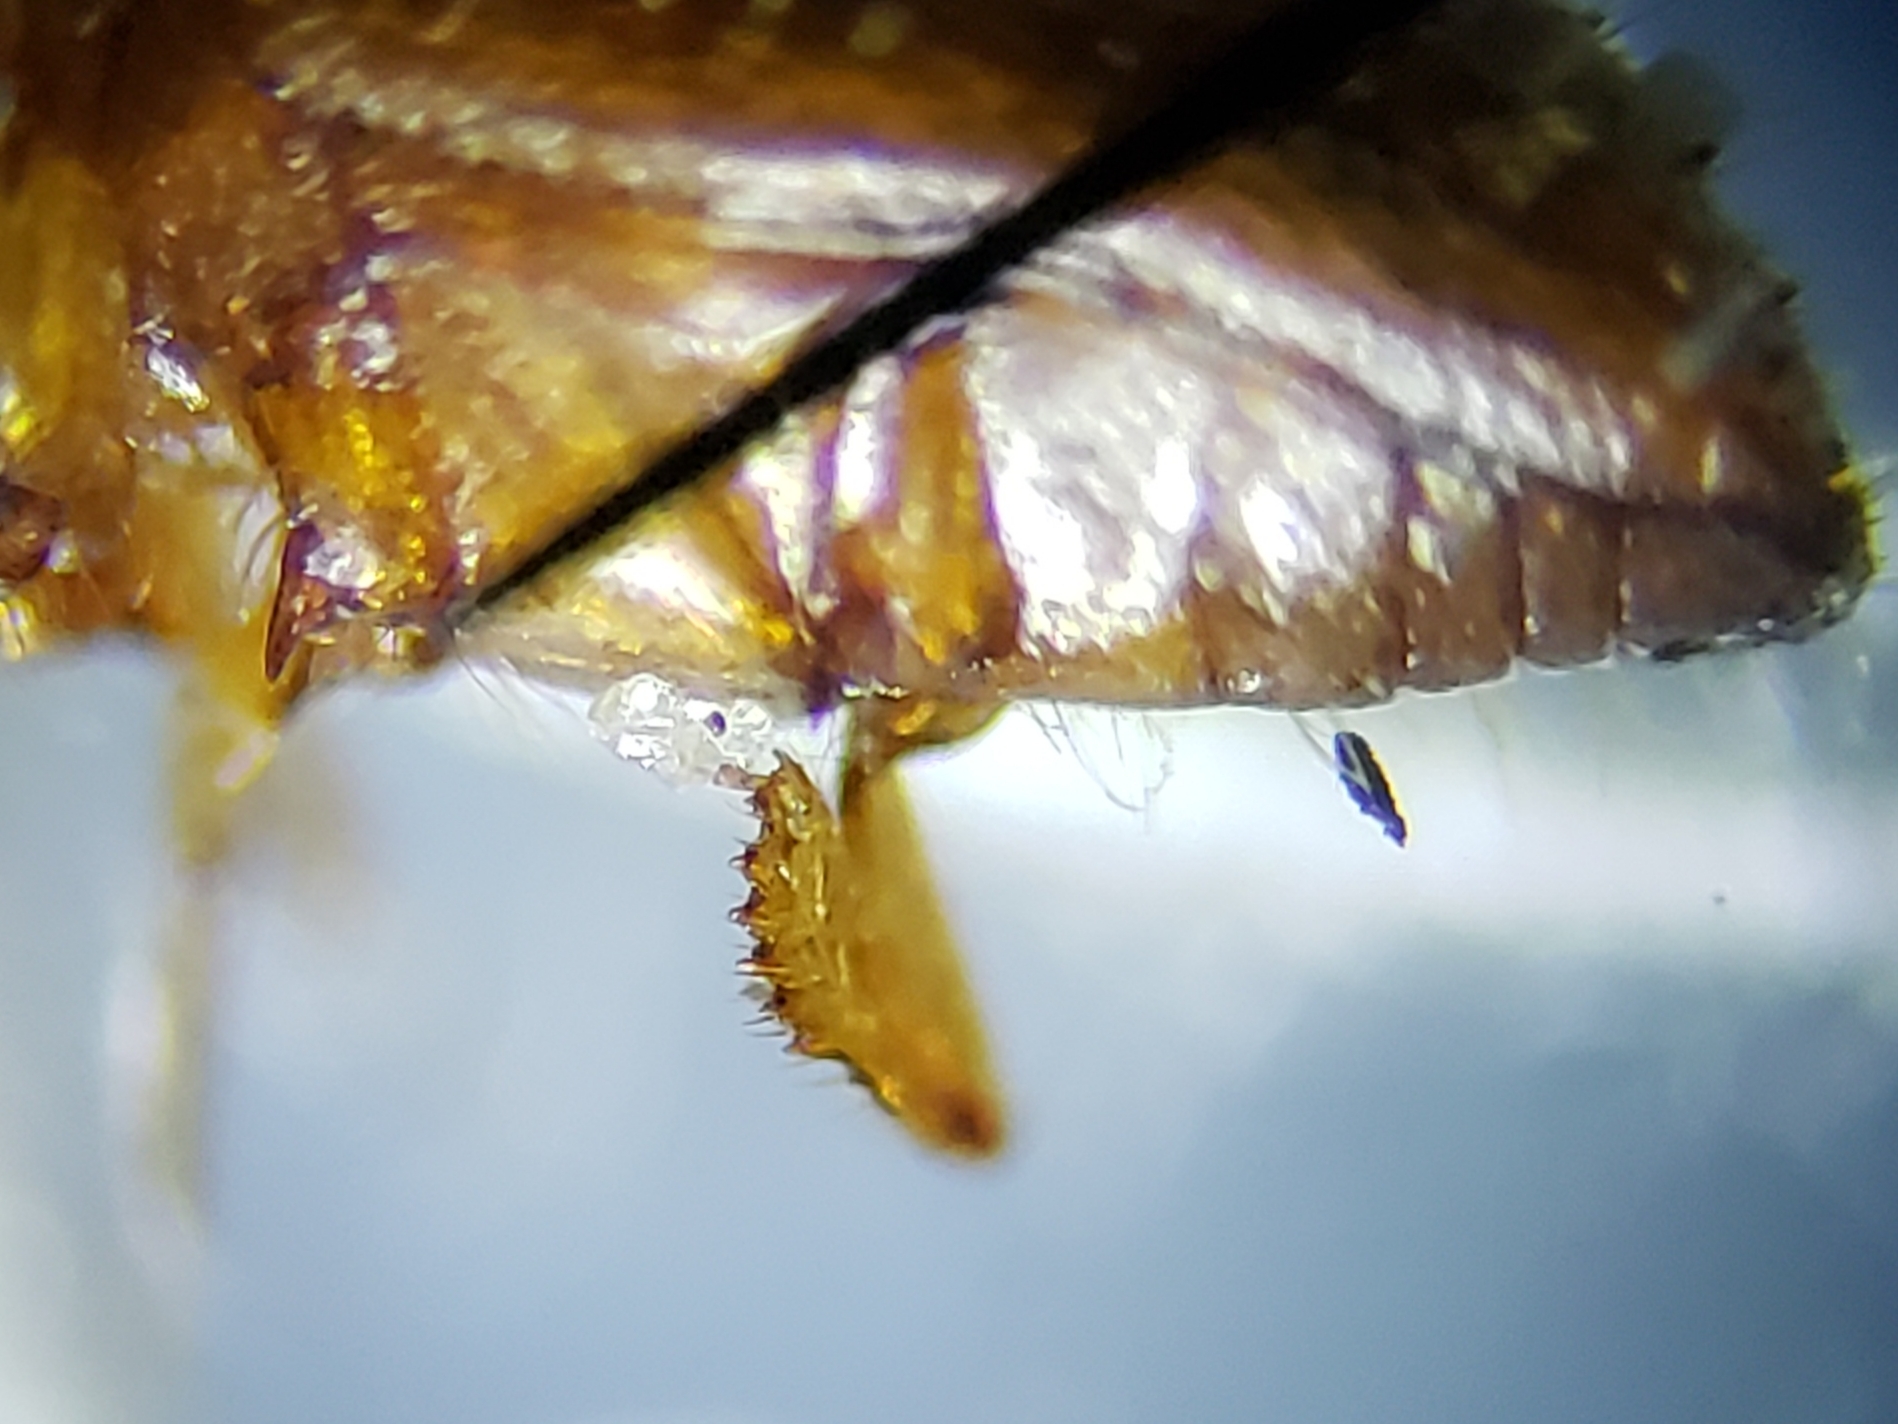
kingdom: Animalia
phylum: Arthropoda
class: Insecta
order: Coleoptera
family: Curculionidae
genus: Xyleborus
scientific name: Xyleborus affinis
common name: Ambrosia beetle
